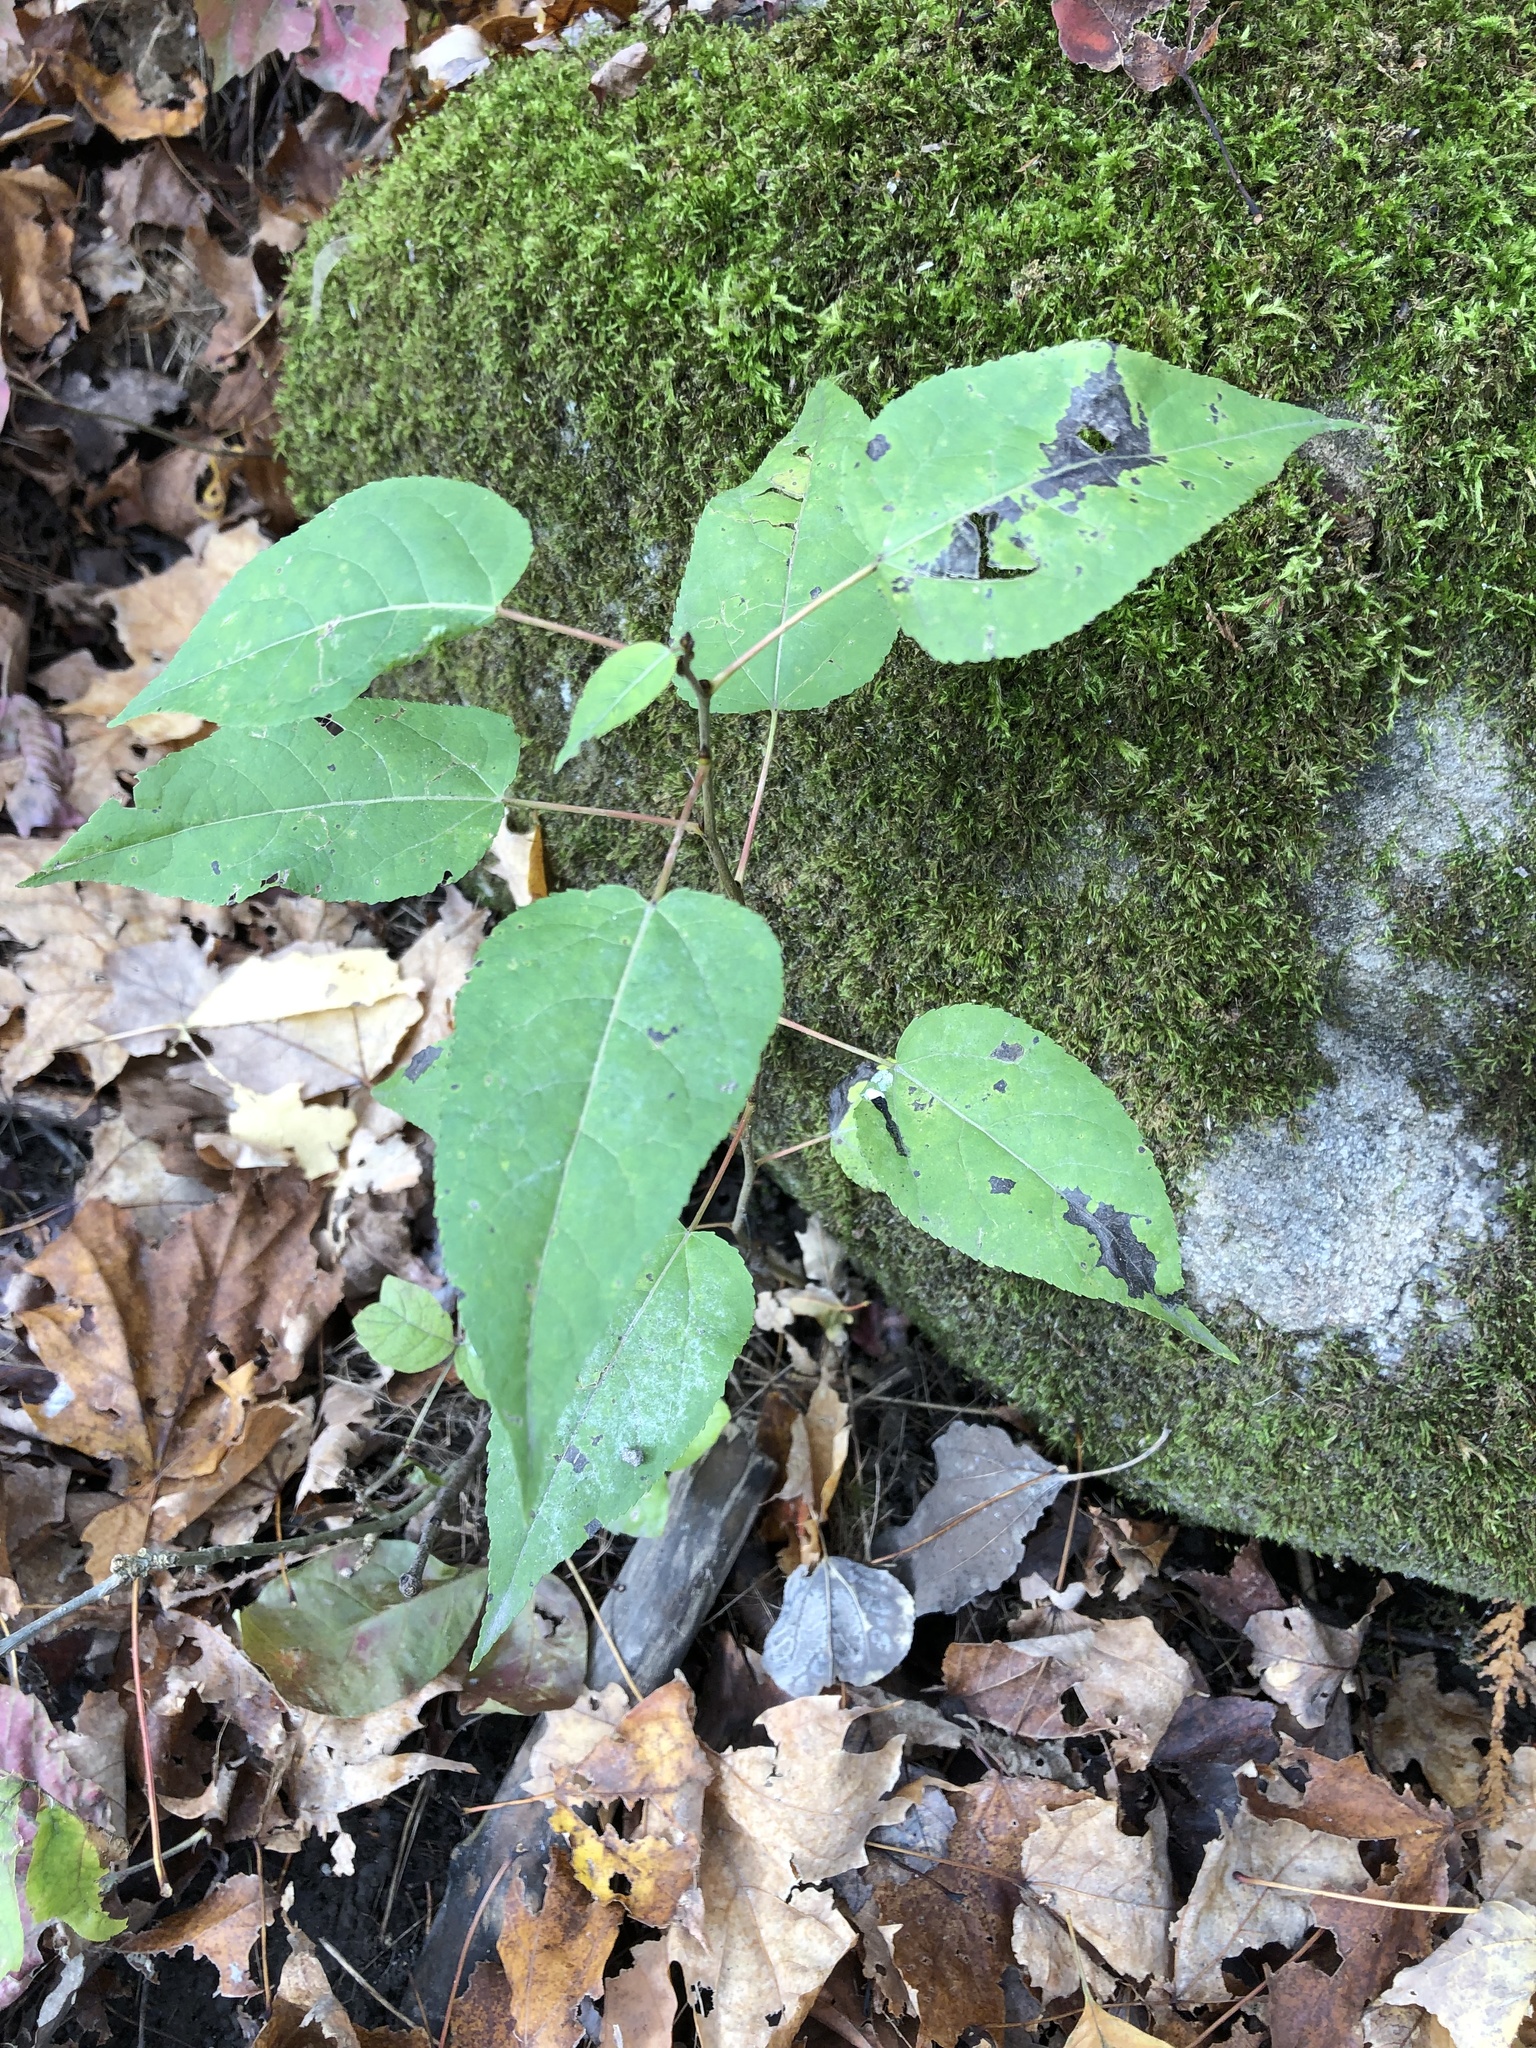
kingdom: Plantae
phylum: Tracheophyta
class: Magnoliopsida
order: Myrtales
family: Onagraceae
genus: Circaea
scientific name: Circaea canadensis
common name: Broad-leaved enchanter's nightshade
